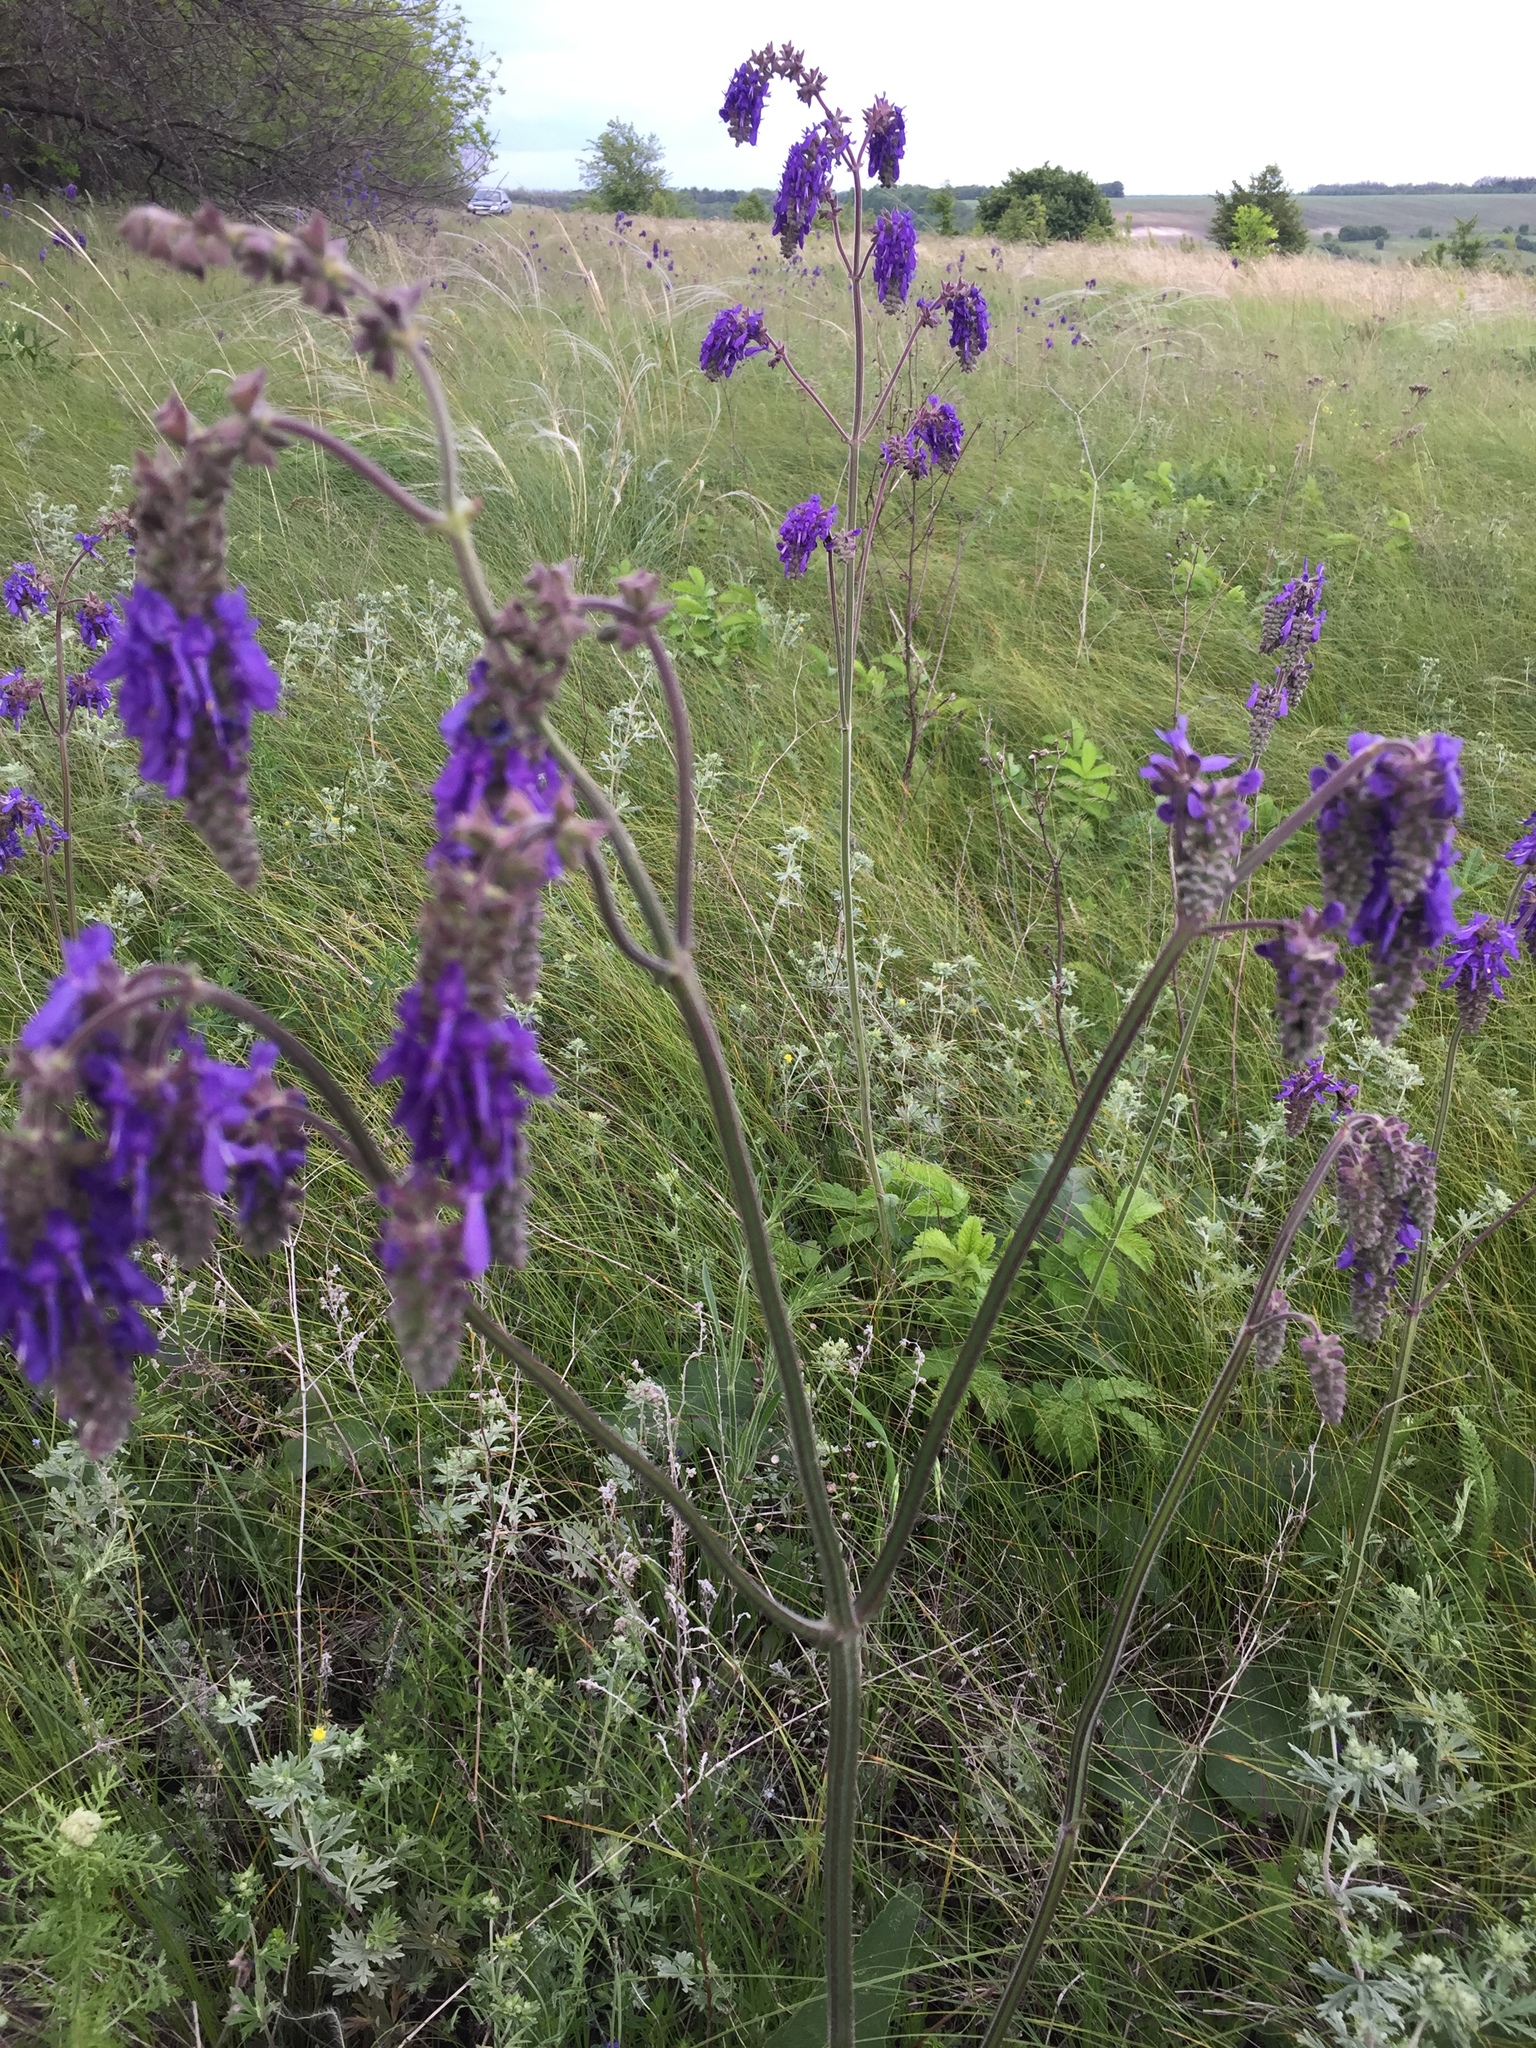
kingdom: Plantae
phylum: Tracheophyta
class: Magnoliopsida
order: Lamiales
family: Lamiaceae
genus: Salvia
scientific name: Salvia nutans
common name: Nodding sage
